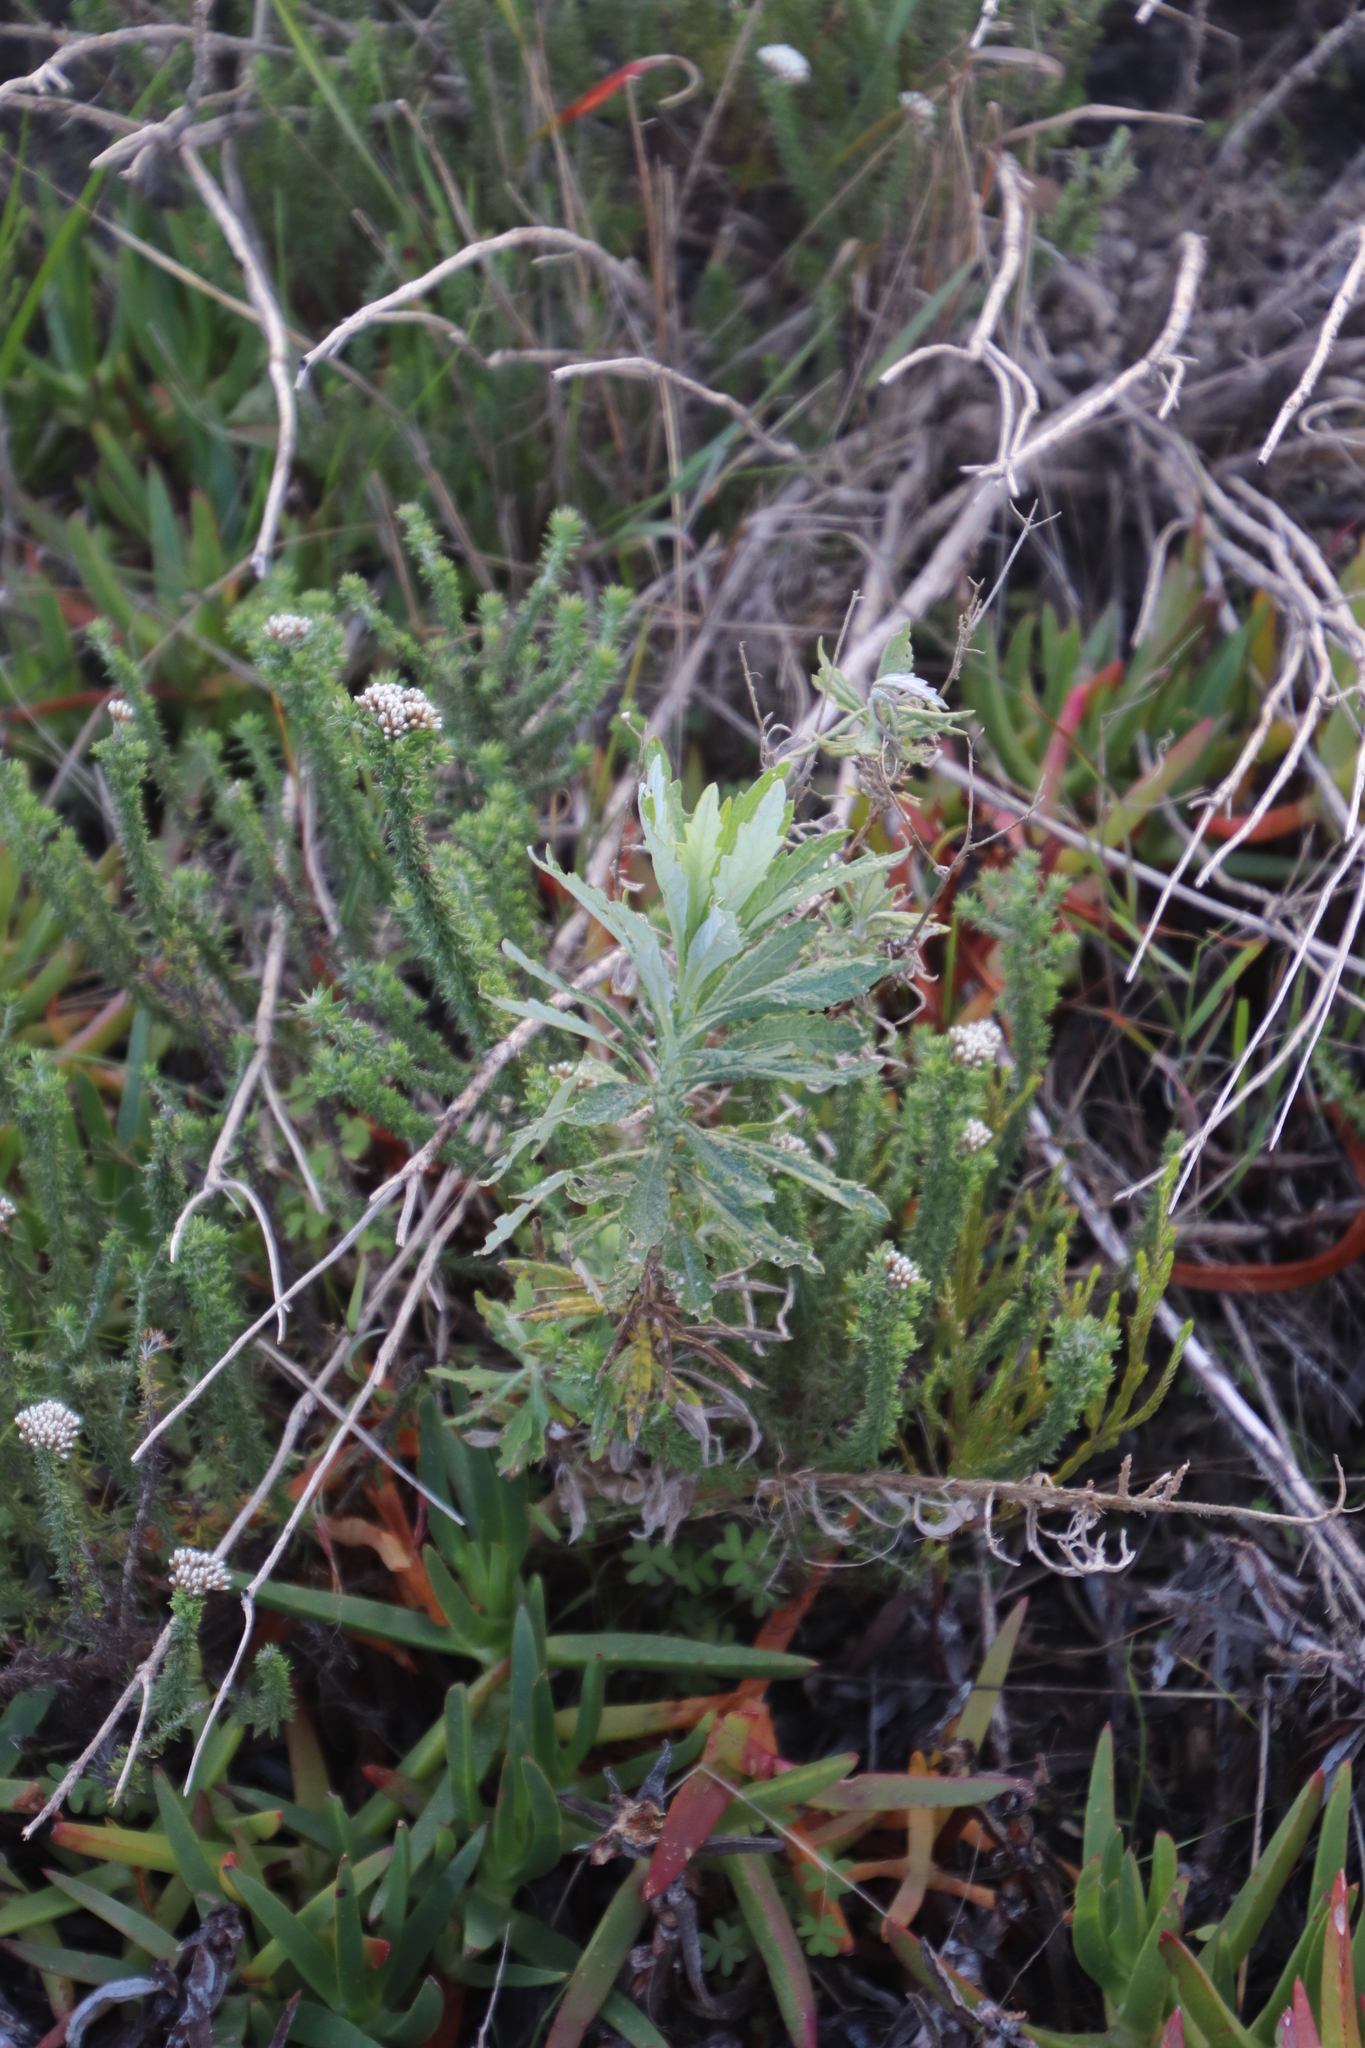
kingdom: Plantae
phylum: Tracheophyta
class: Magnoliopsida
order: Asterales
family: Asteraceae
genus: Senecio
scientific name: Senecio pterophorus
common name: Shoddy ragwort
